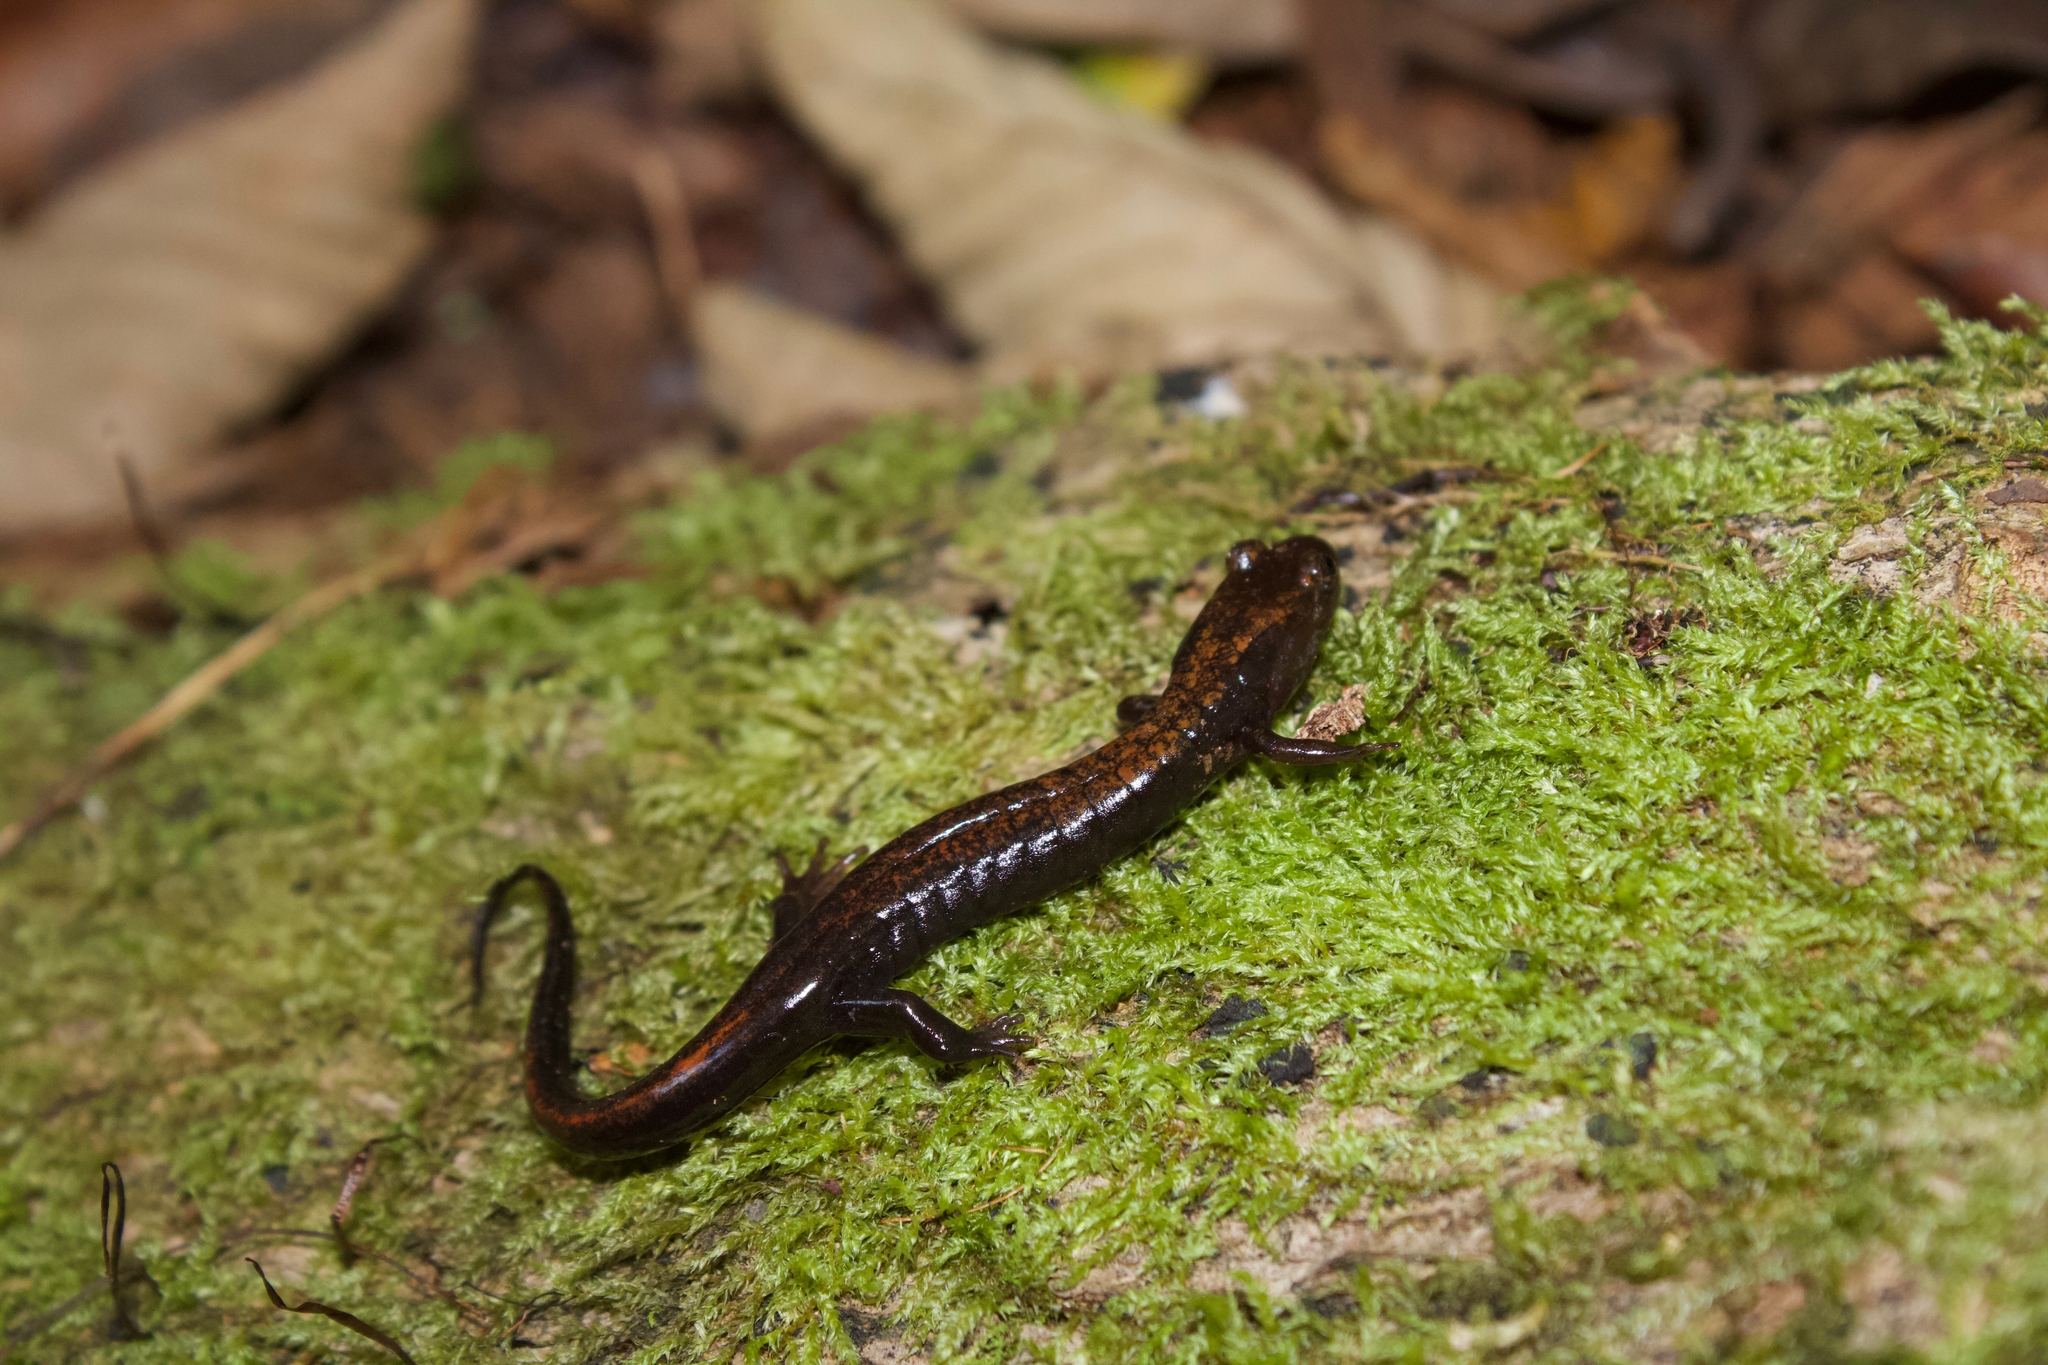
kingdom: Animalia
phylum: Chordata
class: Amphibia
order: Caudata
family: Plethodontidae
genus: Desmognathus
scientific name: Desmognathus adatsihi
